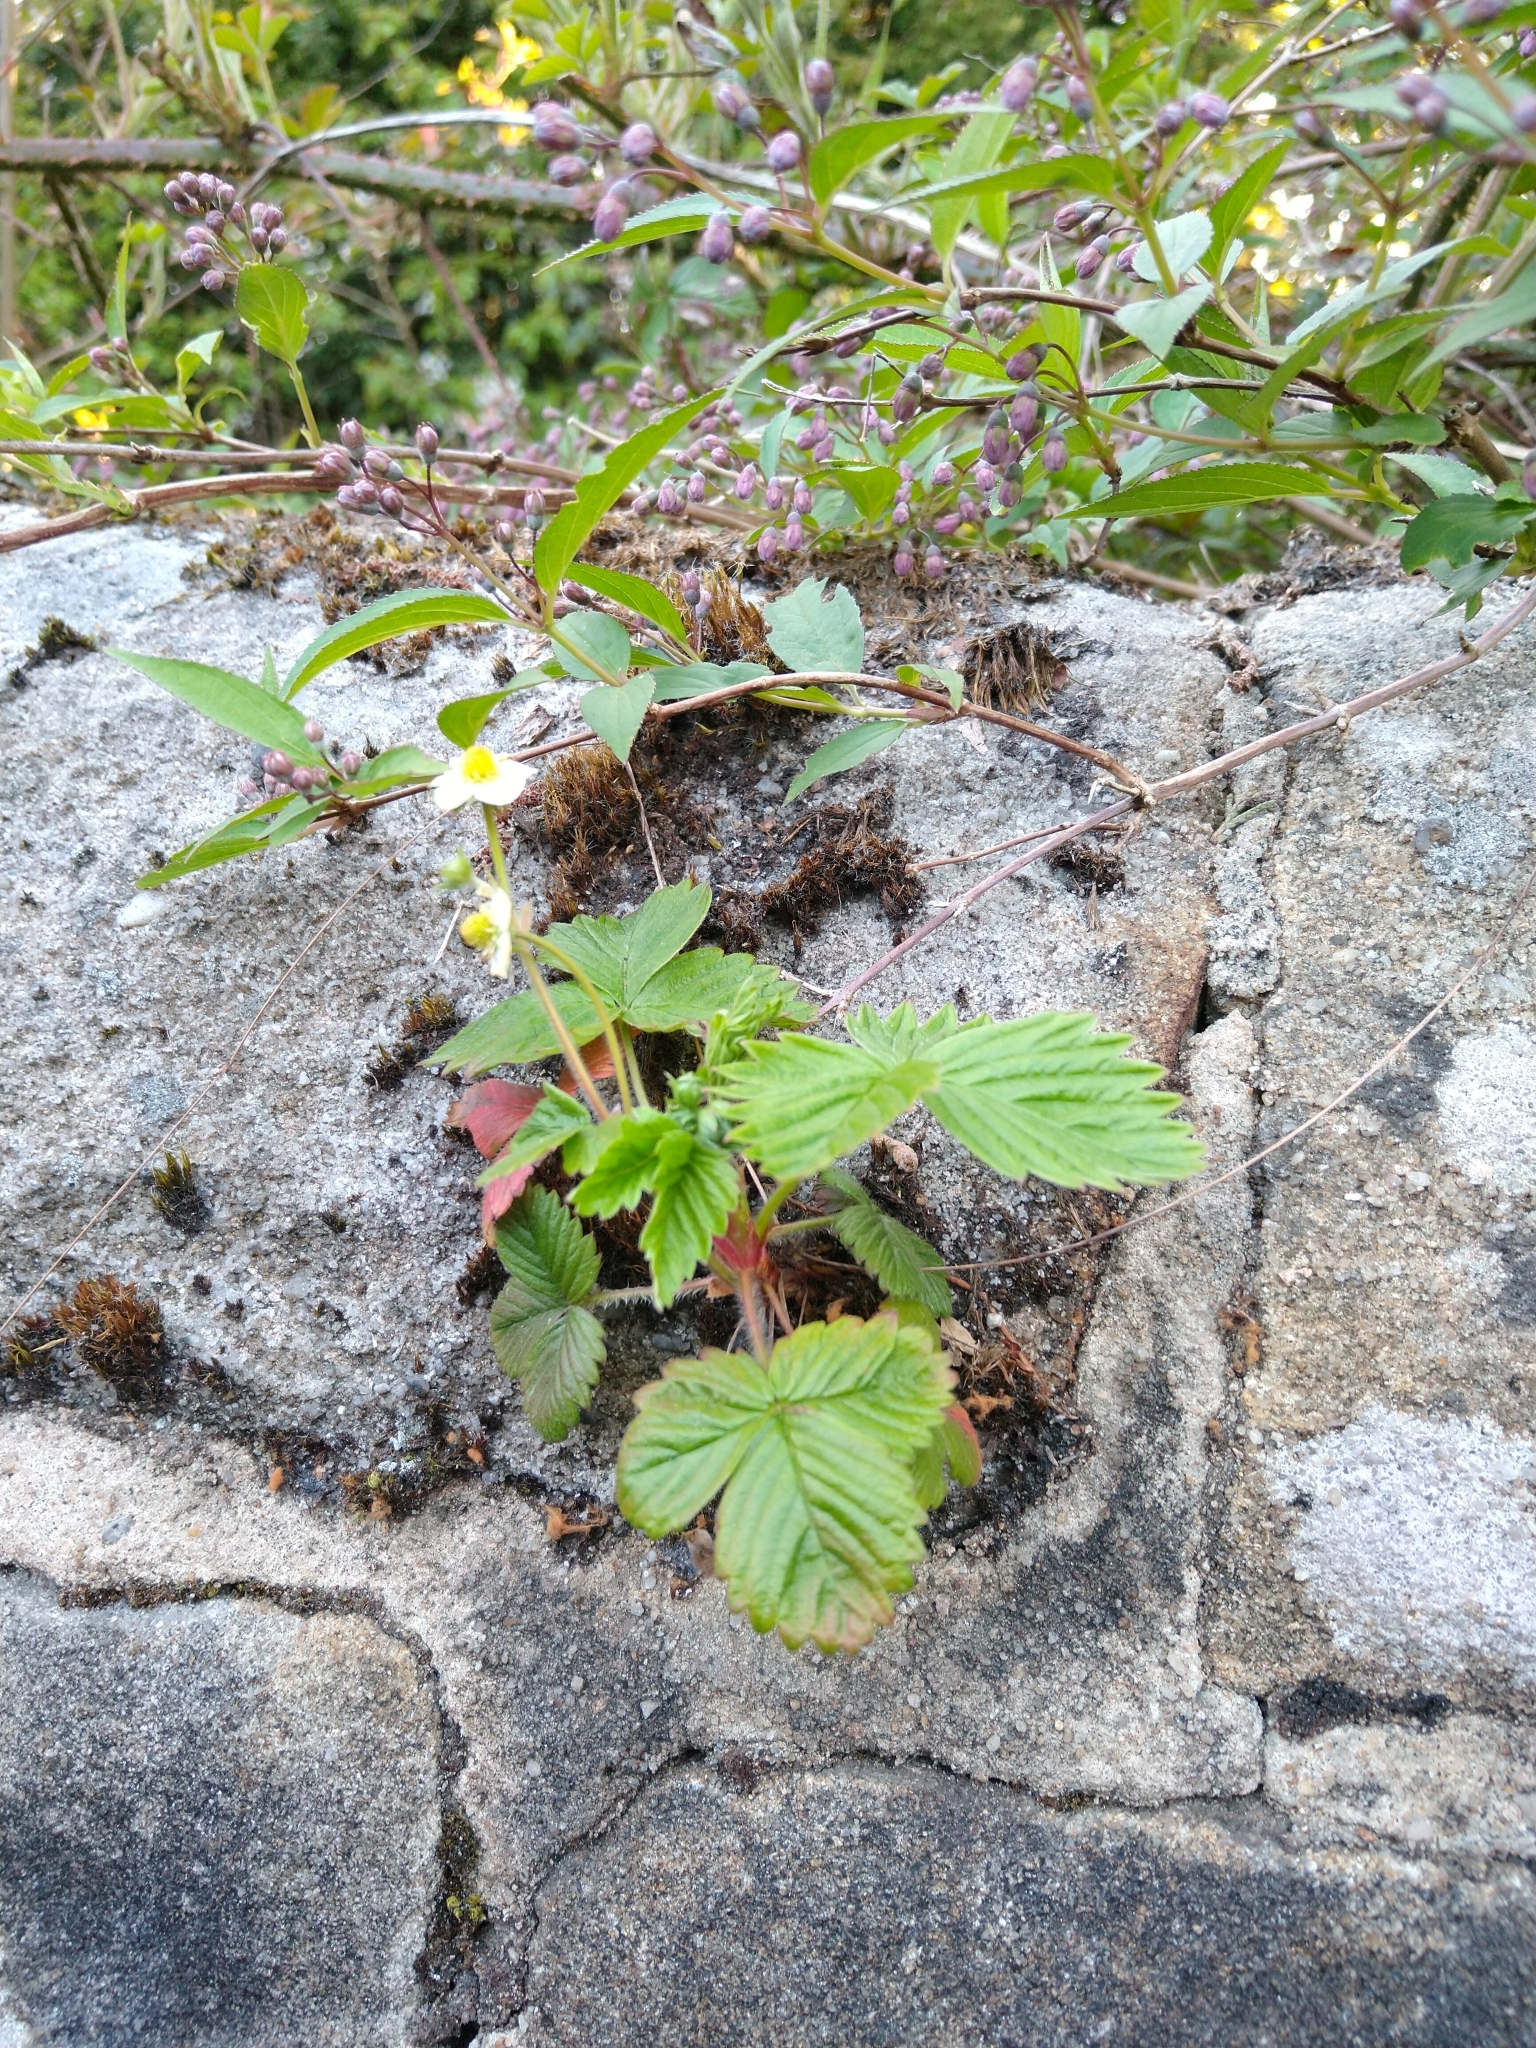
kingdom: Plantae
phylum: Tracheophyta
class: Magnoliopsida
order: Rosales
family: Rosaceae
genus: Fragaria
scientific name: Fragaria vesca
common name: Wild strawberry
